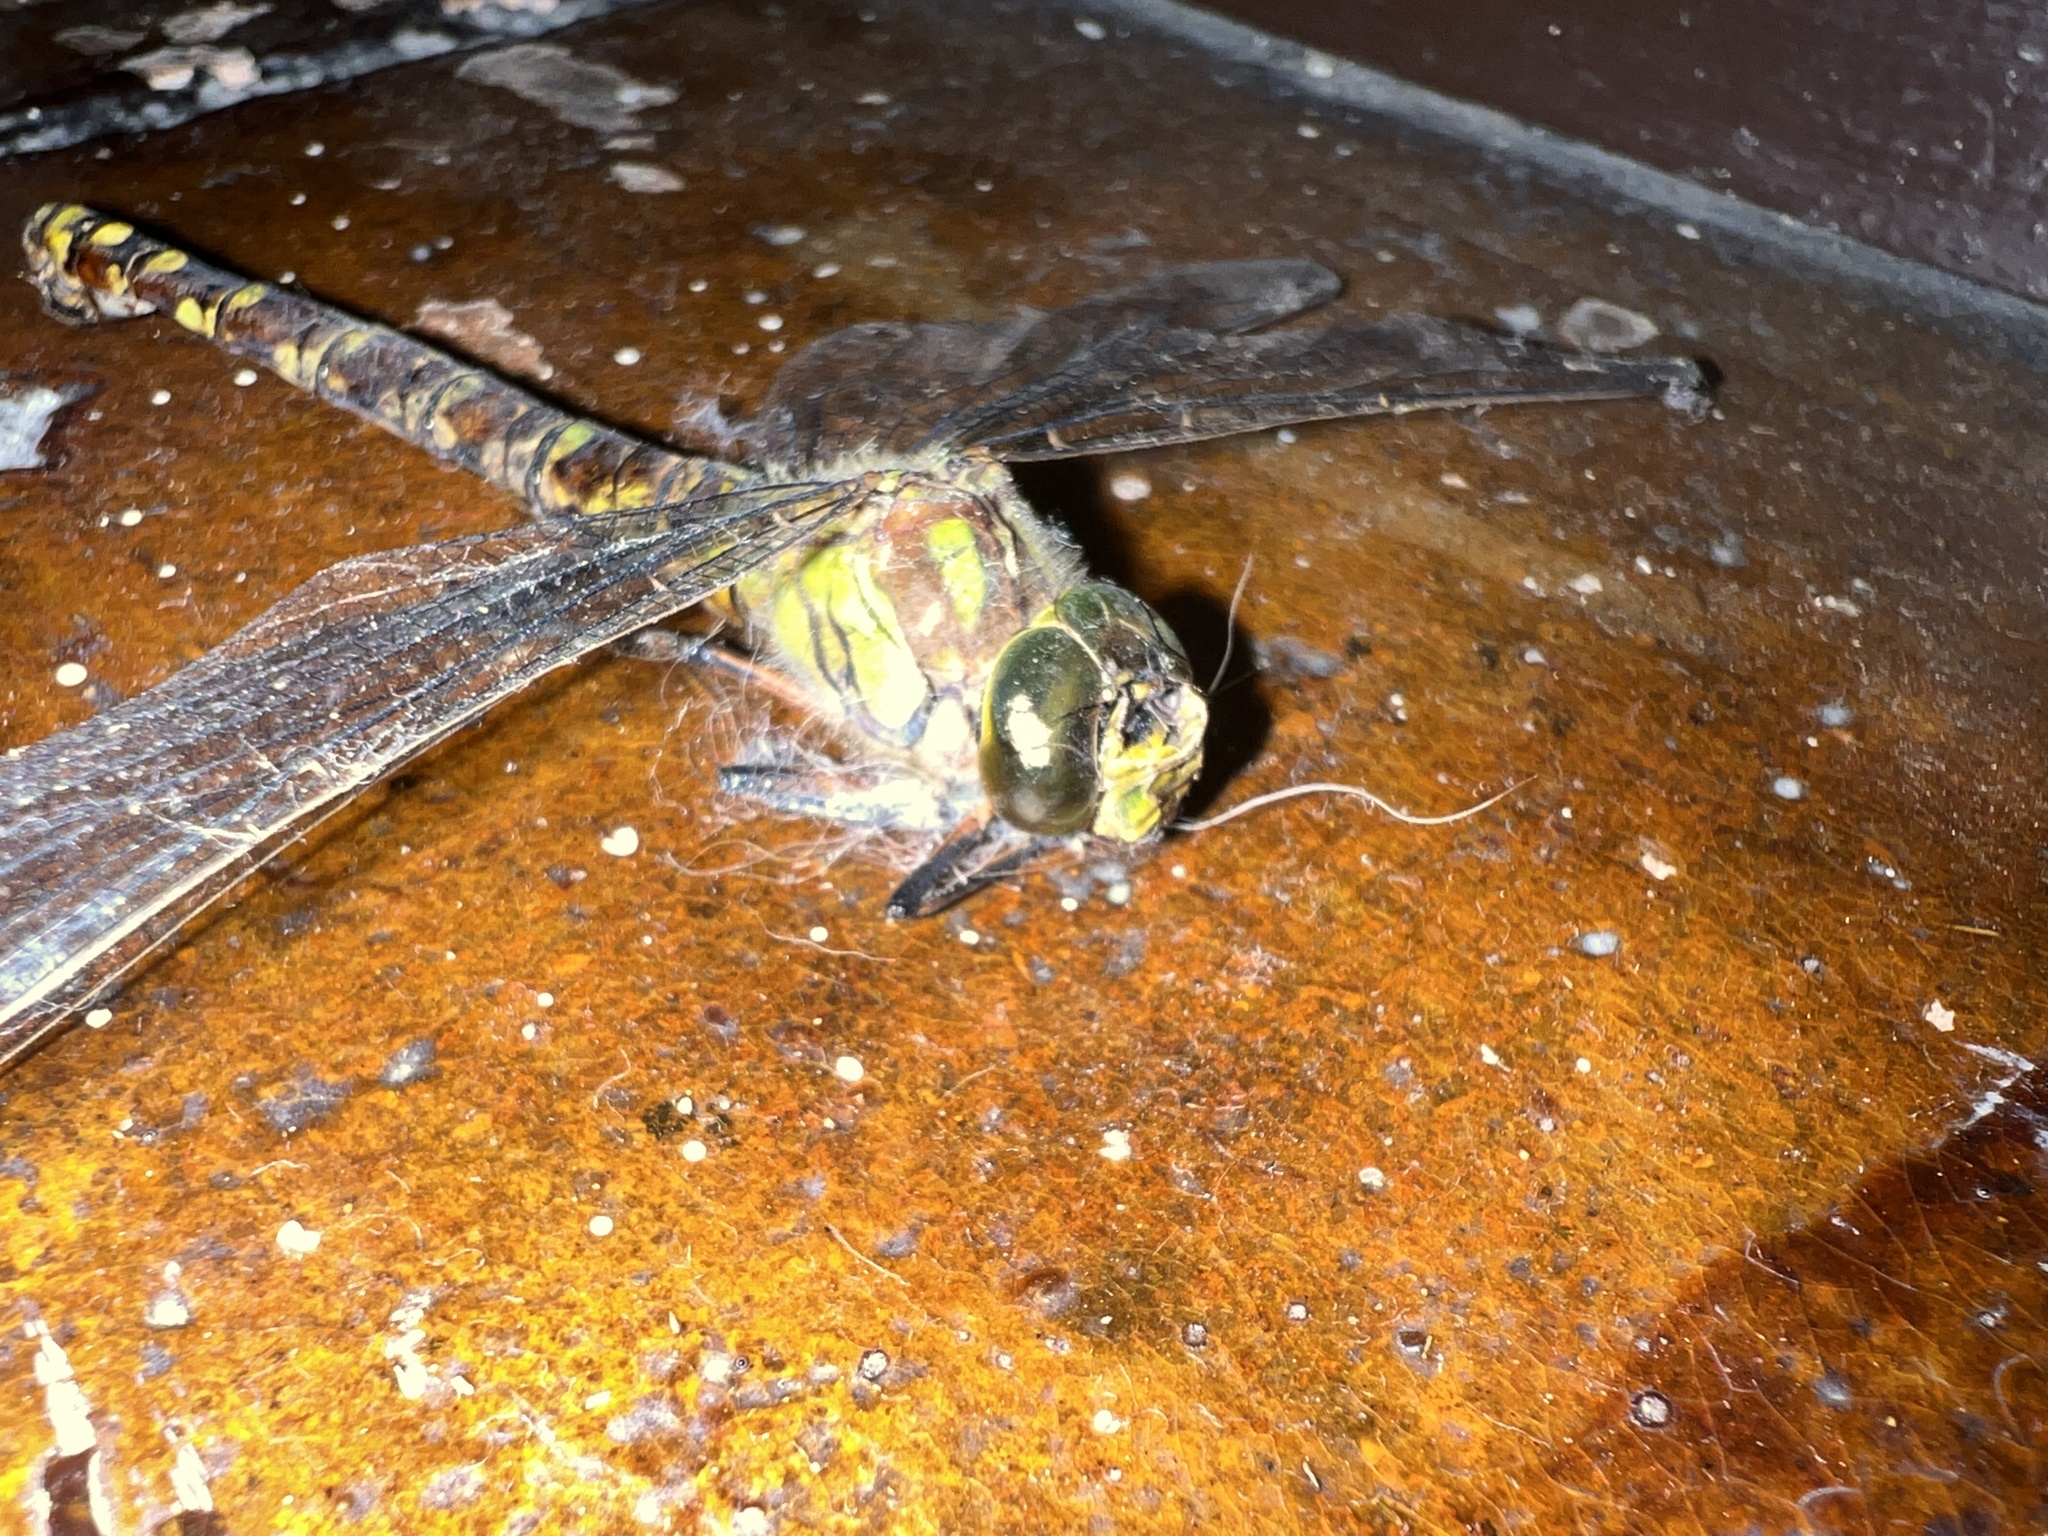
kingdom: Animalia
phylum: Arthropoda
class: Insecta
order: Odonata
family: Aeshnidae
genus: Aeshna
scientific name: Aeshna cyanea
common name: Southern hawker
